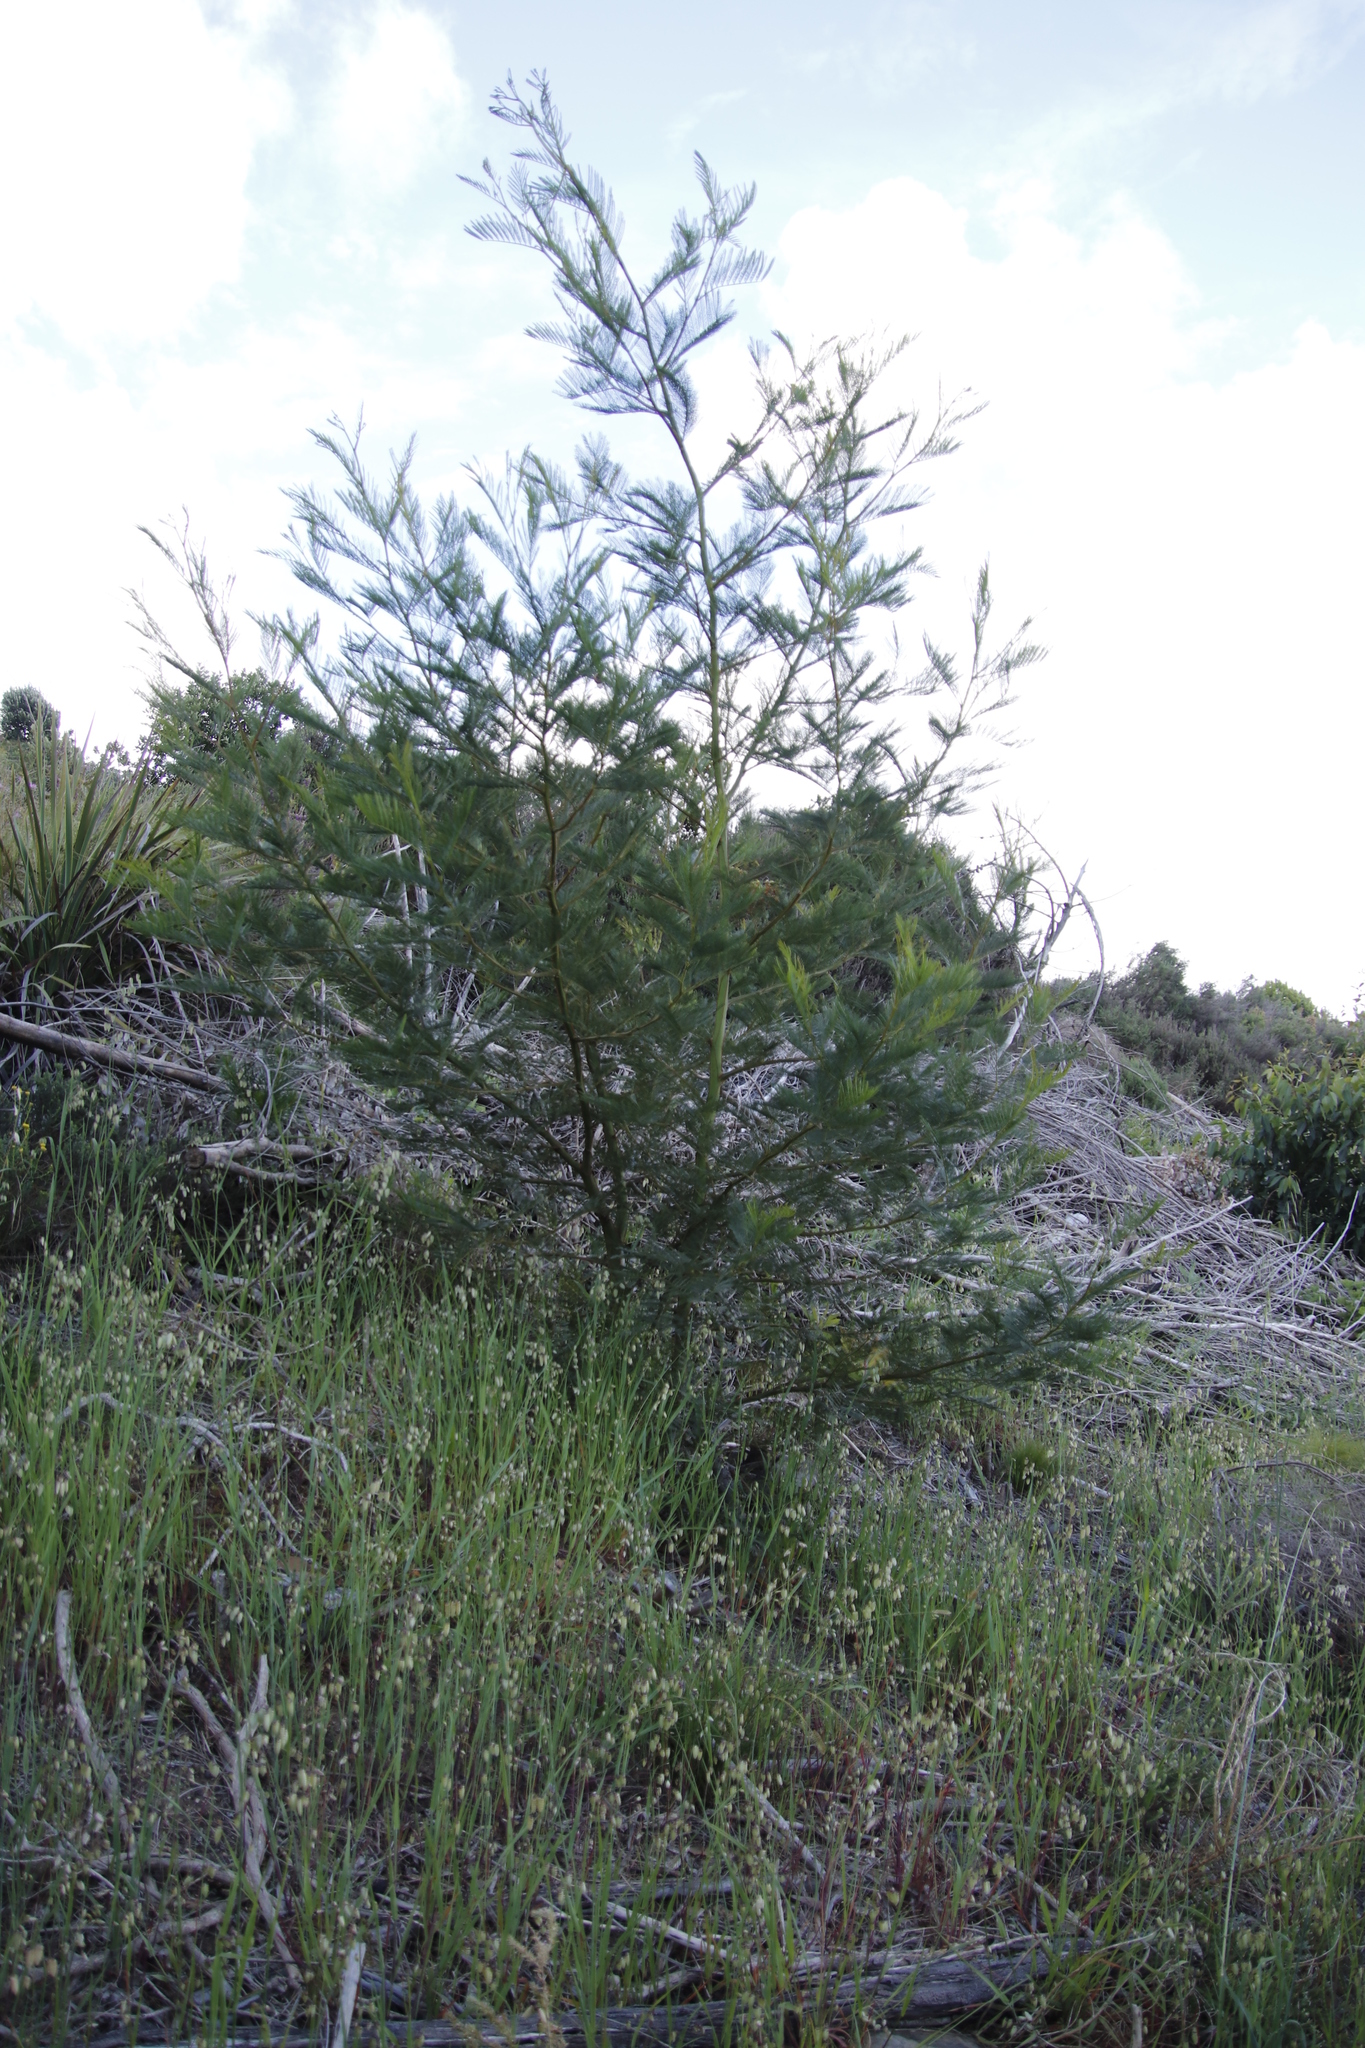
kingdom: Plantae
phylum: Tracheophyta
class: Magnoliopsida
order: Fabales
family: Fabaceae
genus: Acacia
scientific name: Acacia decurrens
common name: Green wattle
